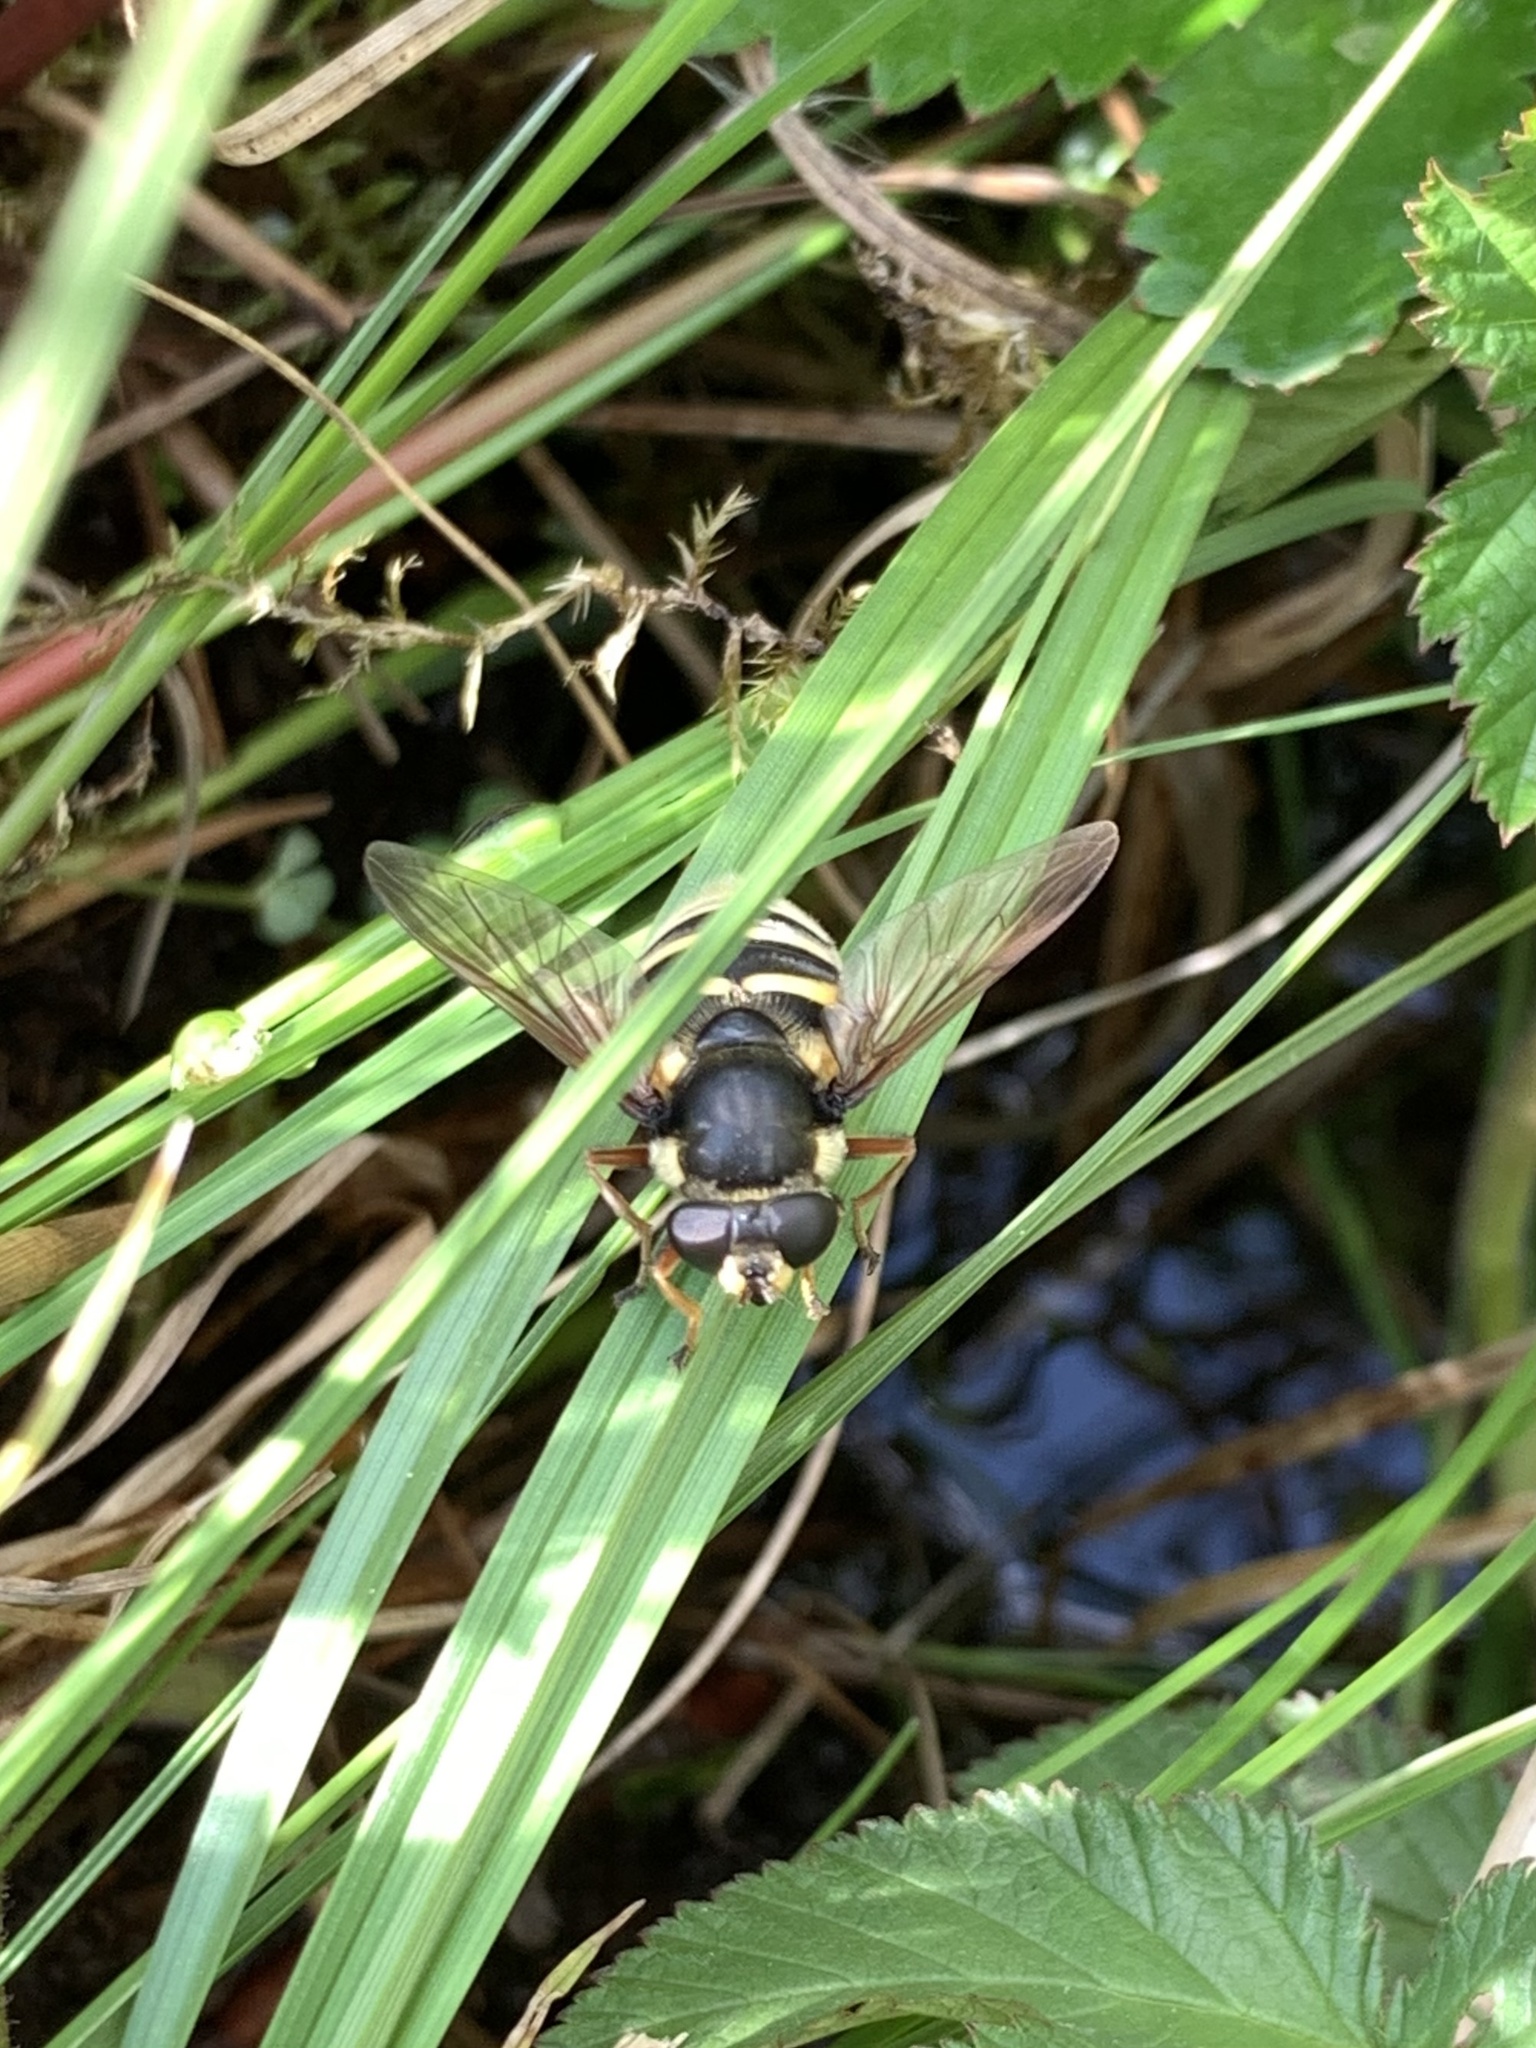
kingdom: Animalia
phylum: Arthropoda
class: Insecta
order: Diptera
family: Syrphidae
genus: Sericomyia
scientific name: Sericomyia silentis
